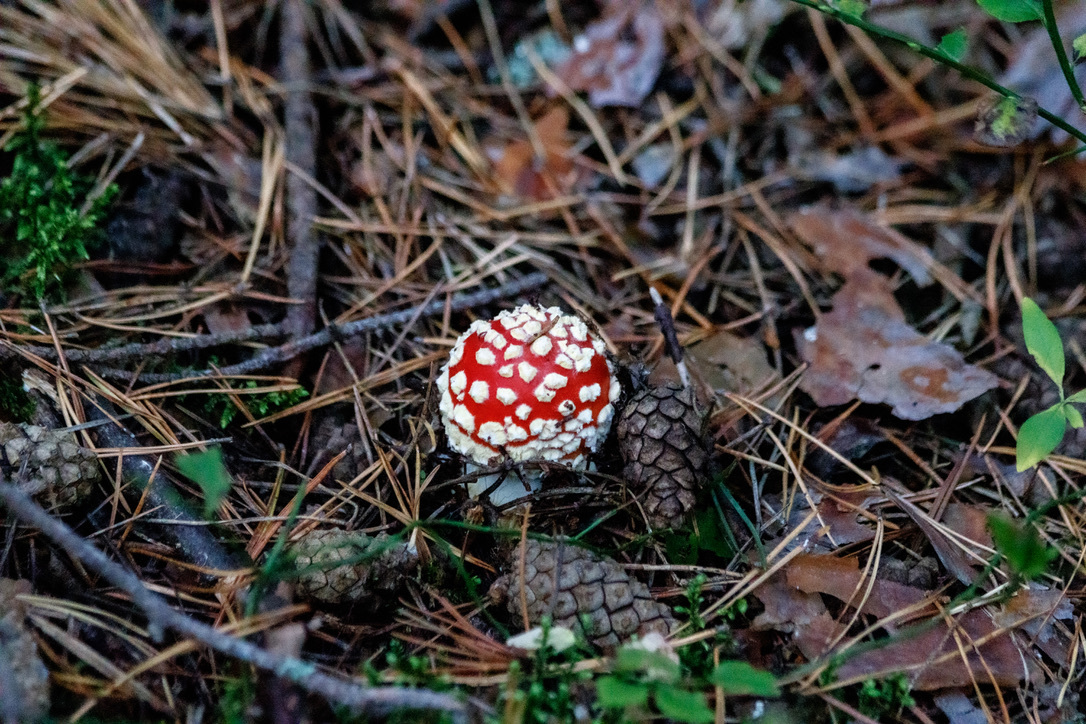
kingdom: Fungi
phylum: Basidiomycota
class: Agaricomycetes
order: Agaricales
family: Amanitaceae
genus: Amanita
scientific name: Amanita muscaria
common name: Fly agaric
